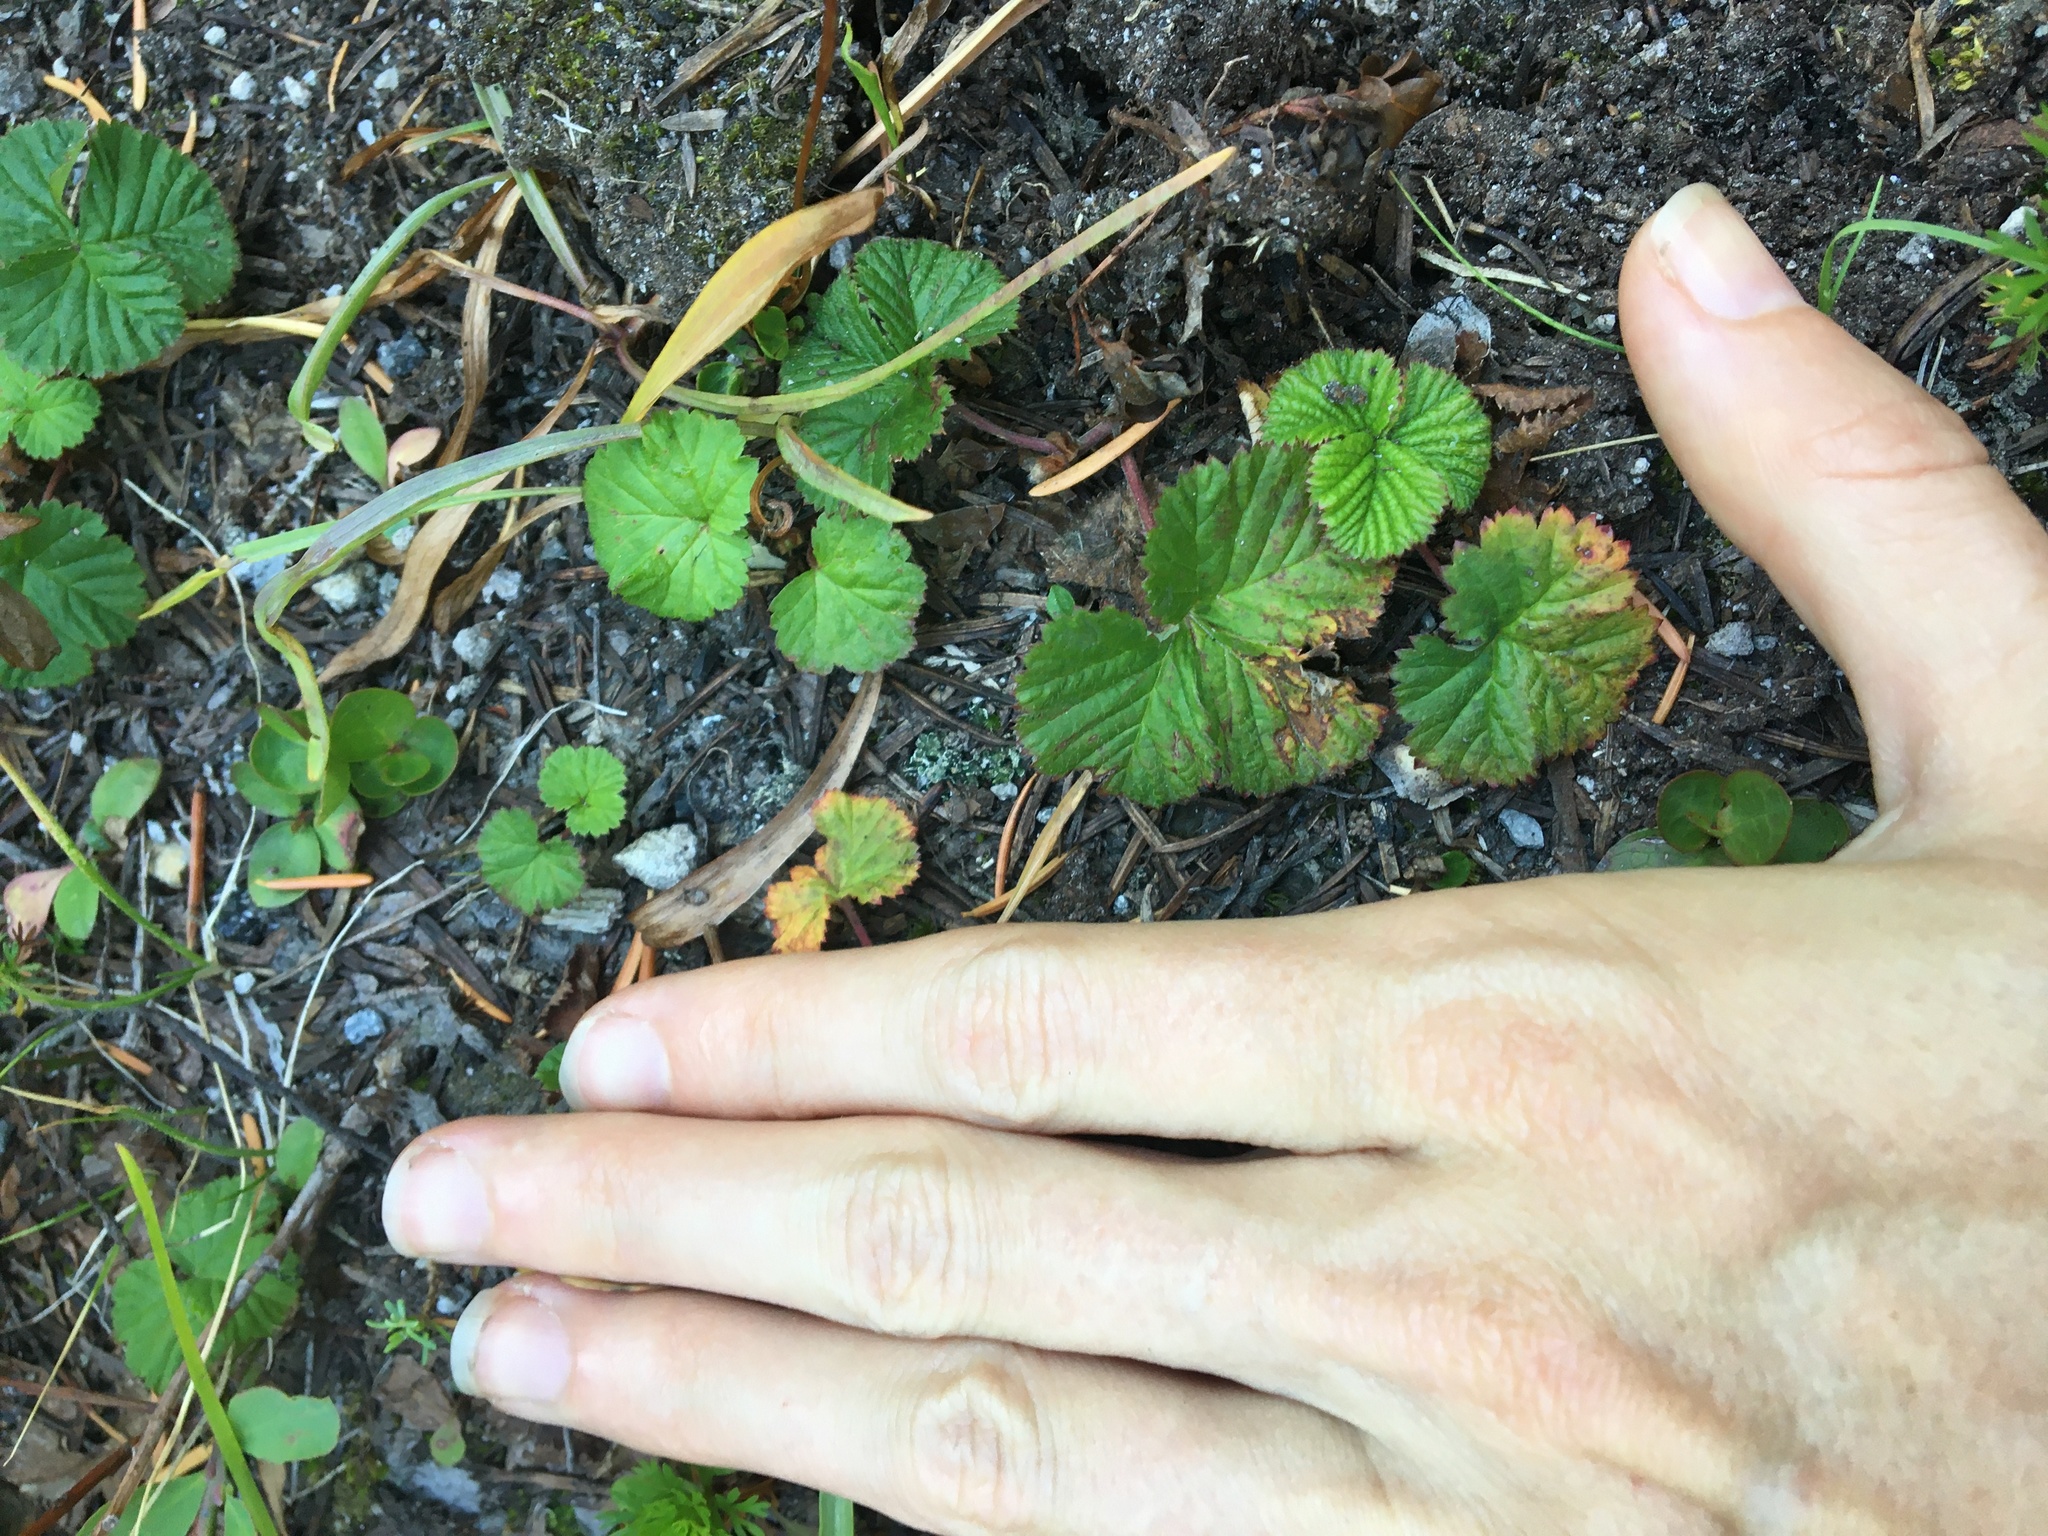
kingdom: Plantae
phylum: Tracheophyta
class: Magnoliopsida
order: Rosales
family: Rosaceae
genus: Rubus
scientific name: Rubus lasiococcus
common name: Dwarf bramble
